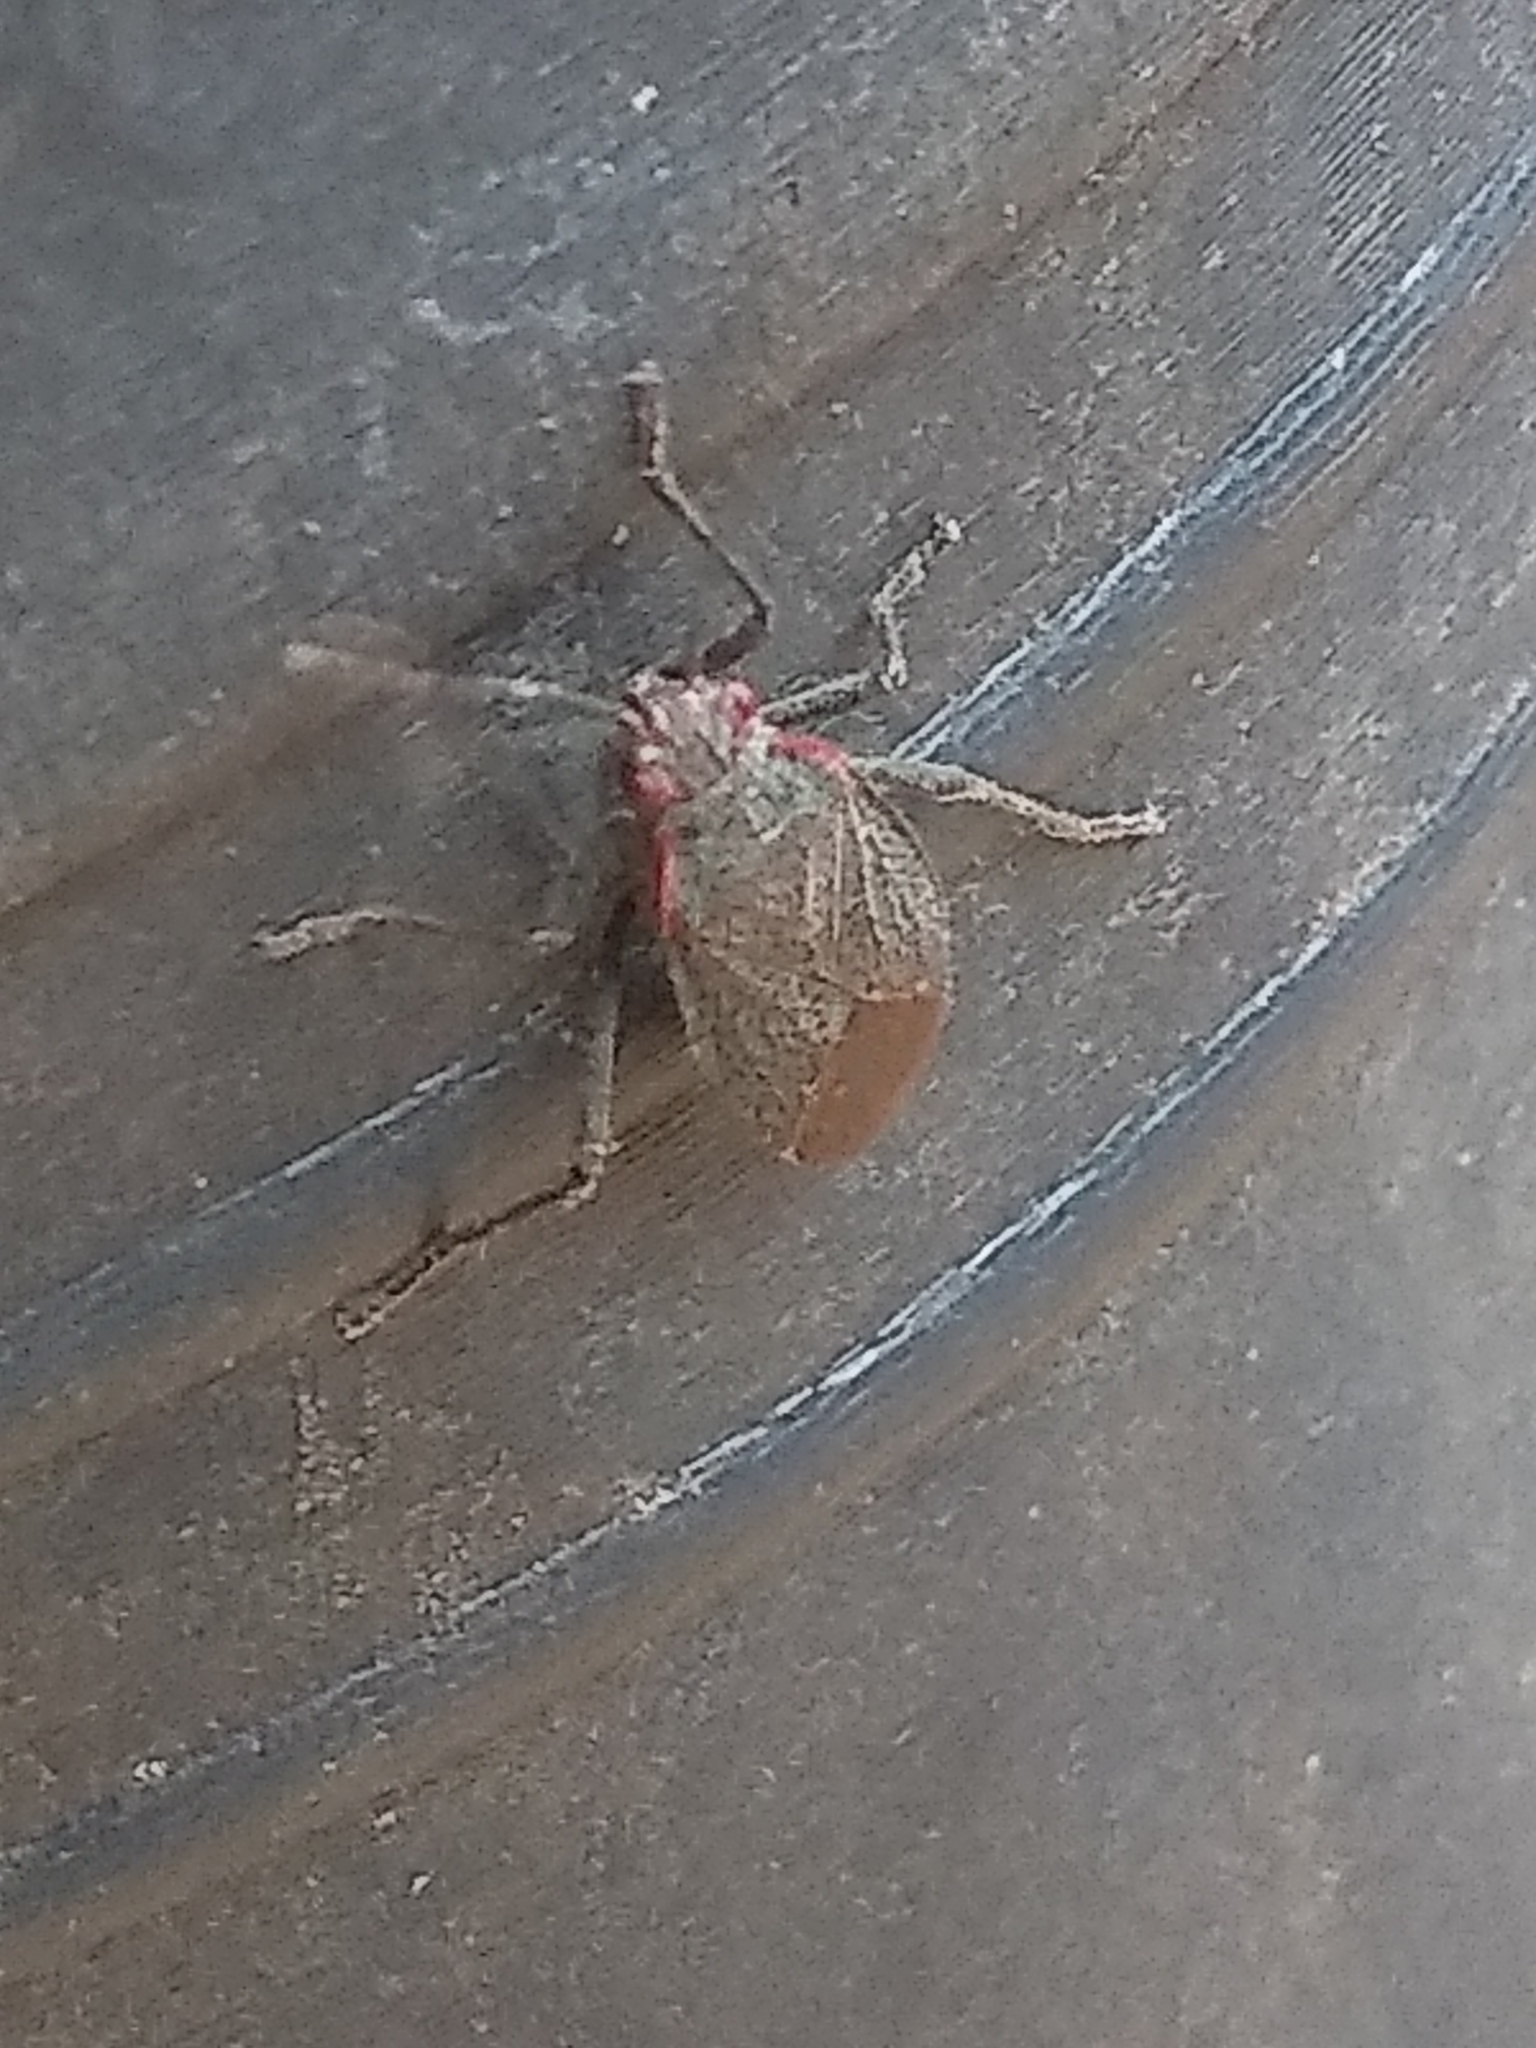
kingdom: Animalia
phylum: Arthropoda
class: Insecta
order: Hemiptera
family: Rhopalidae
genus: Jadera
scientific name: Jadera parapectoralis
